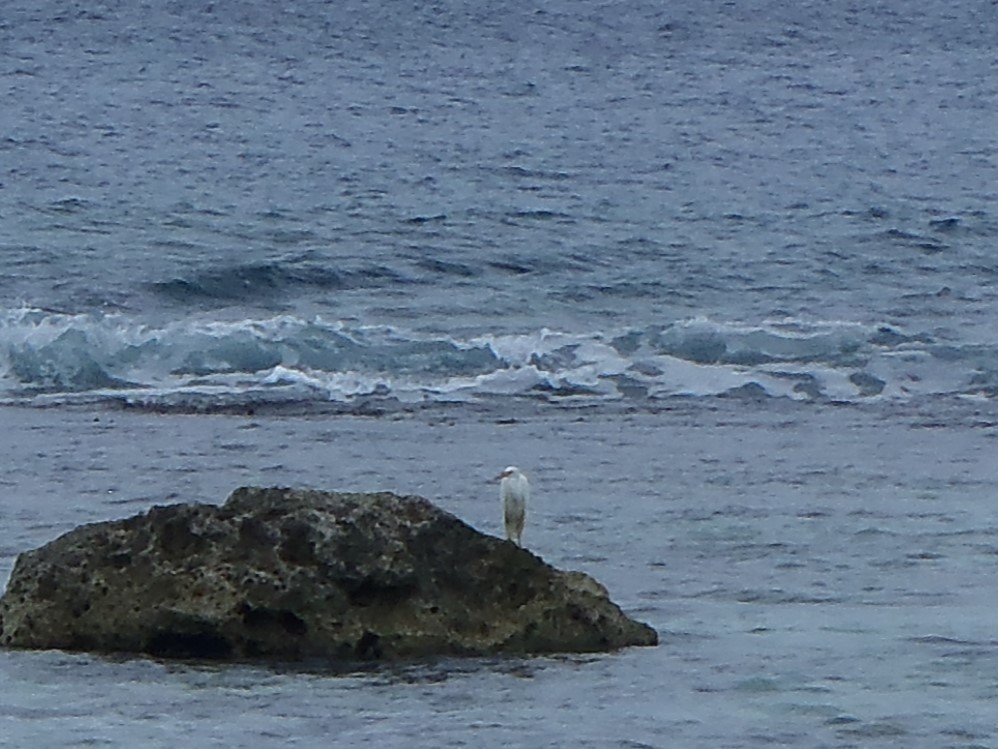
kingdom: Animalia
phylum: Chordata
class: Aves
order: Pelecaniformes
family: Ardeidae
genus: Egretta
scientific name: Egretta sacra
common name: Pacific reef heron
